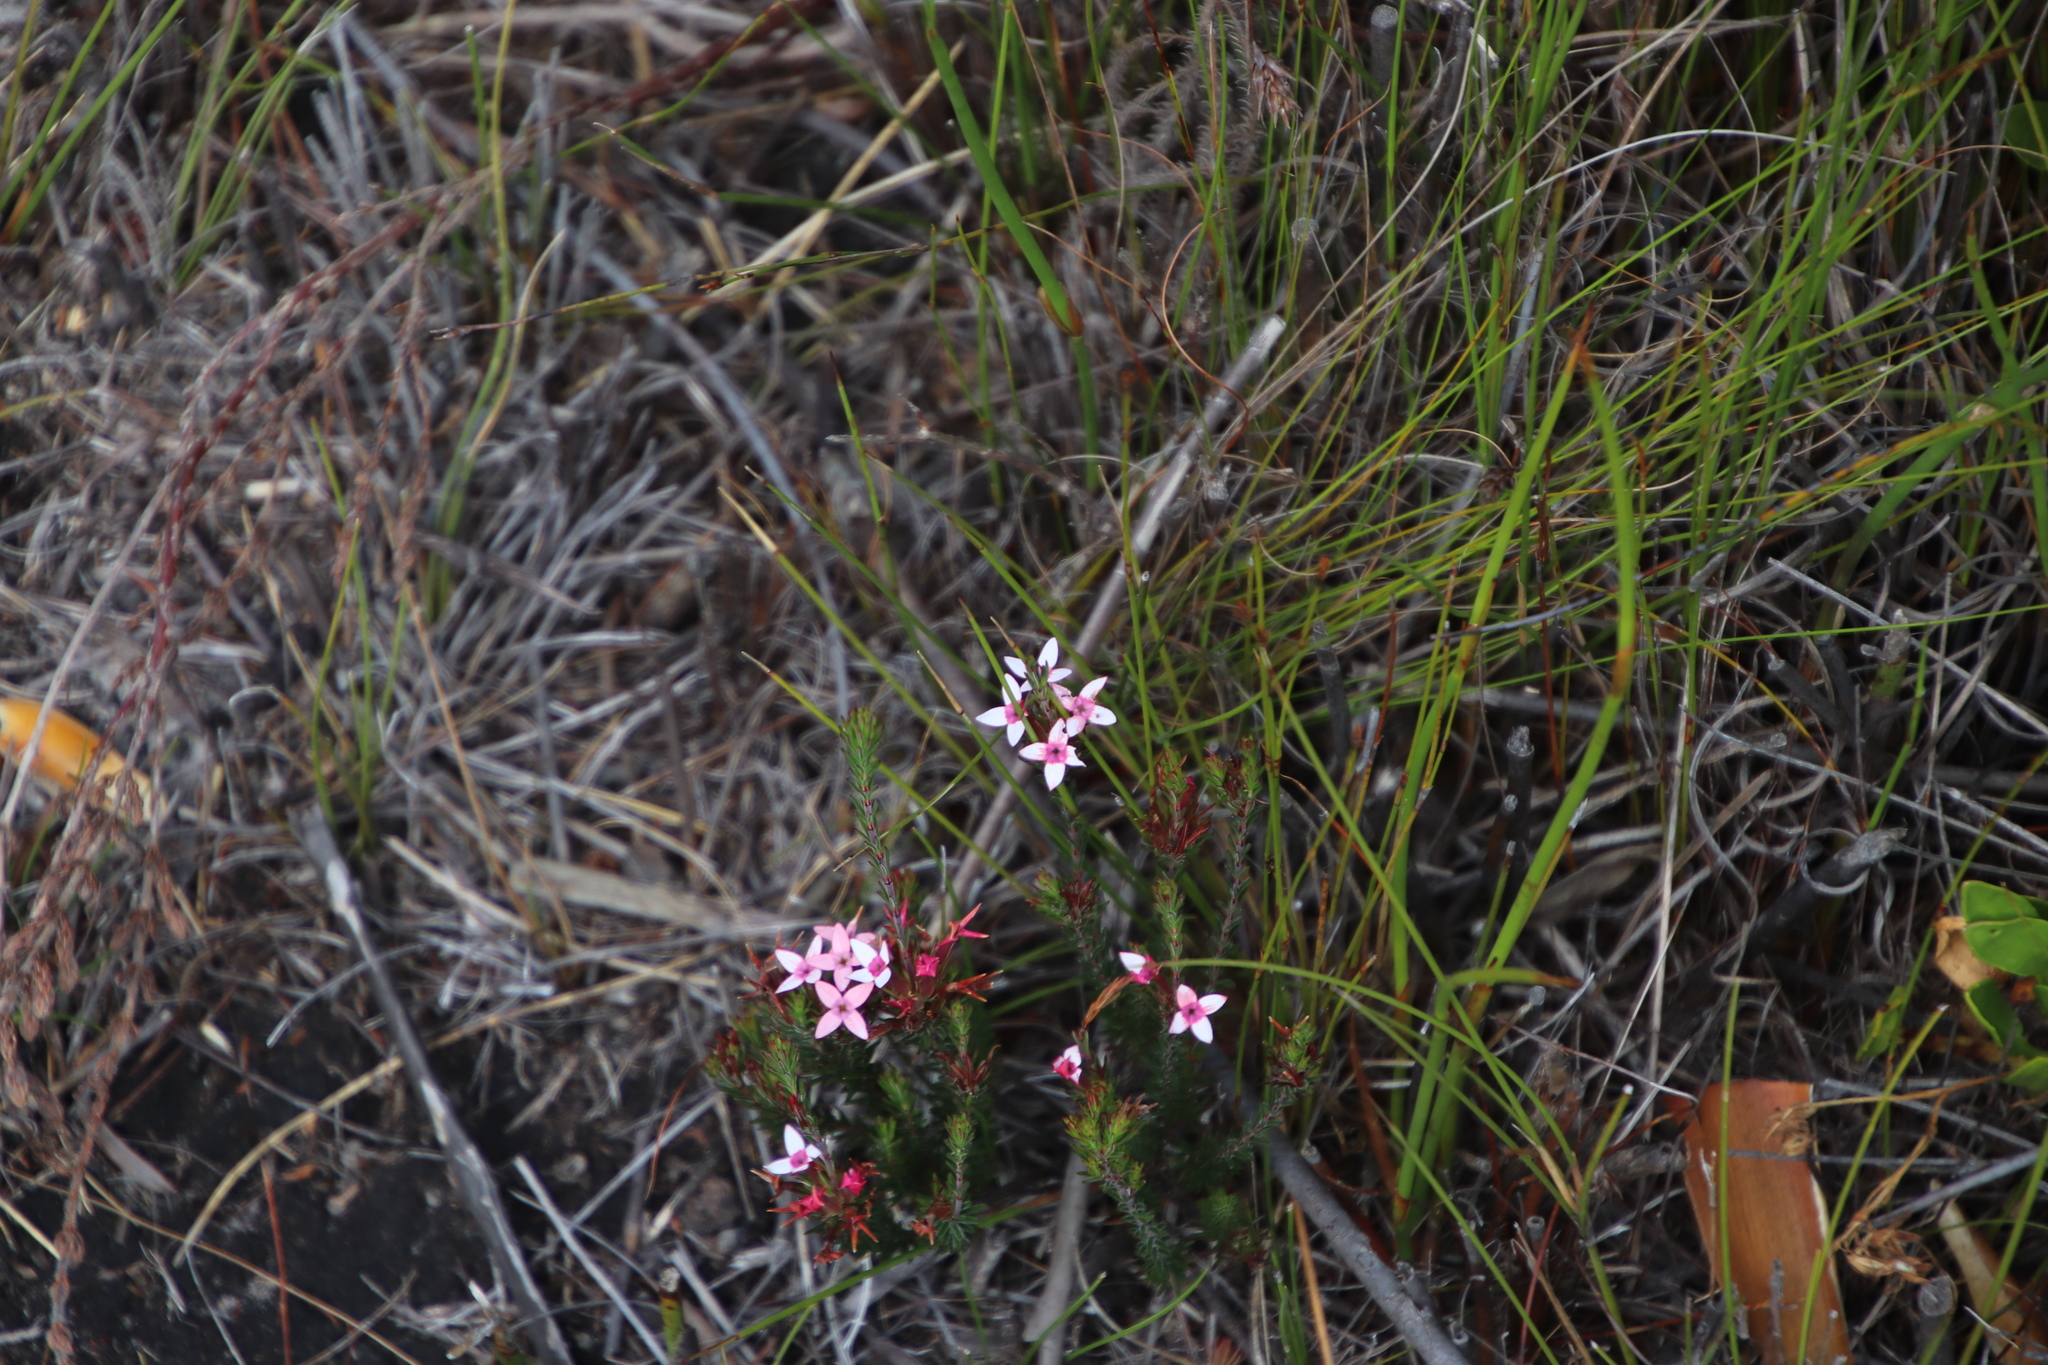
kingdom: Plantae
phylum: Tracheophyta
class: Magnoliopsida
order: Ericales
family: Ericaceae
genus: Erica
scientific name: Erica fastigiata
